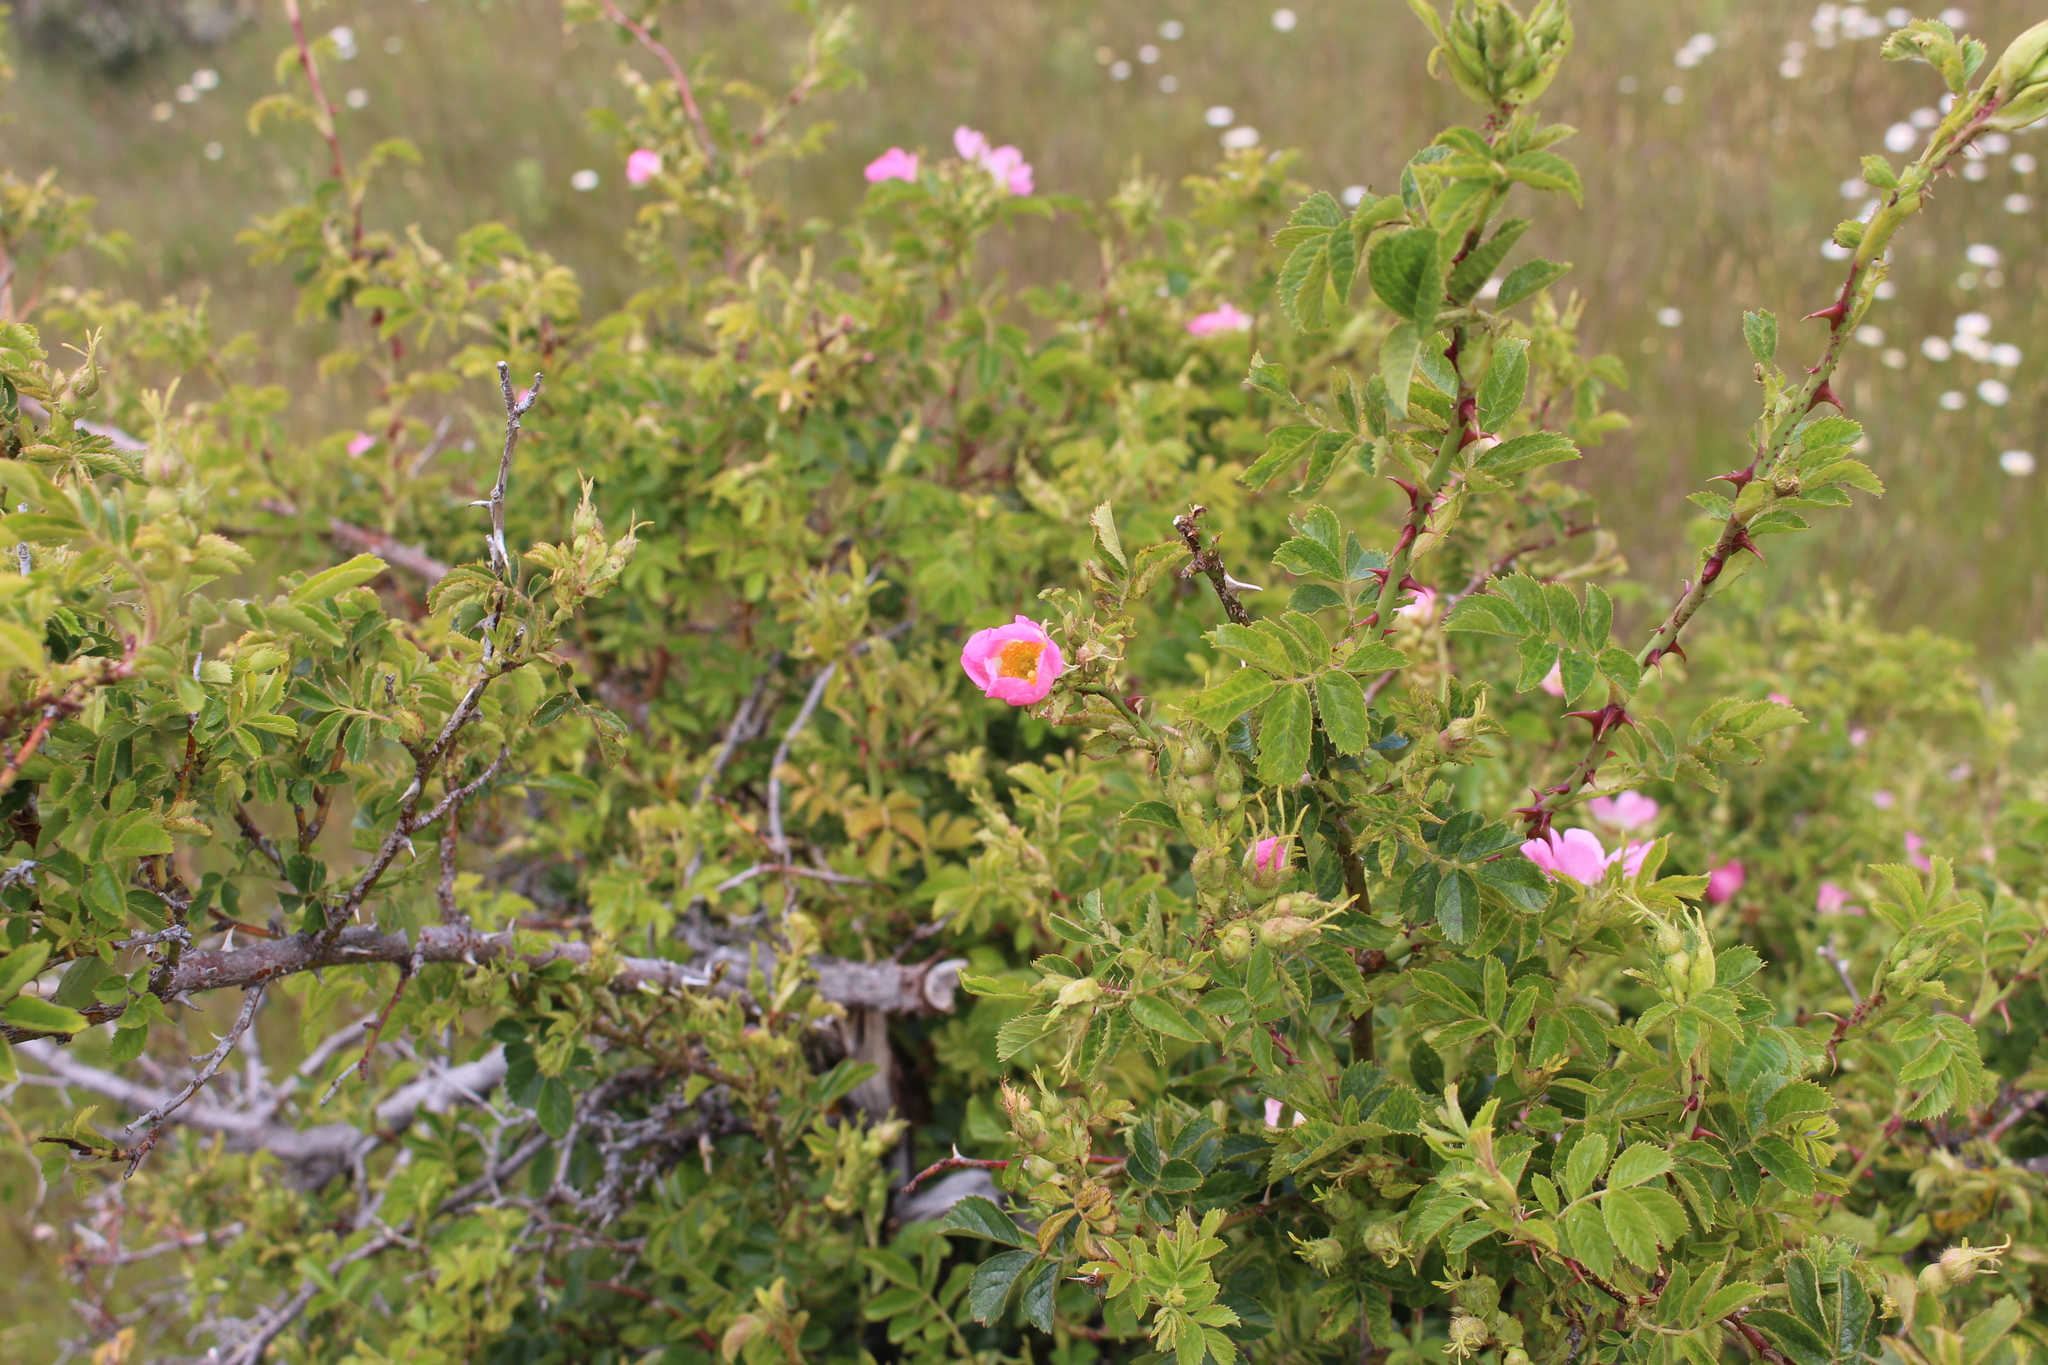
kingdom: Plantae
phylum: Tracheophyta
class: Magnoliopsida
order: Rosales
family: Rosaceae
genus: Rosa
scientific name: Rosa rubiginosa
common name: Sweet-briar
